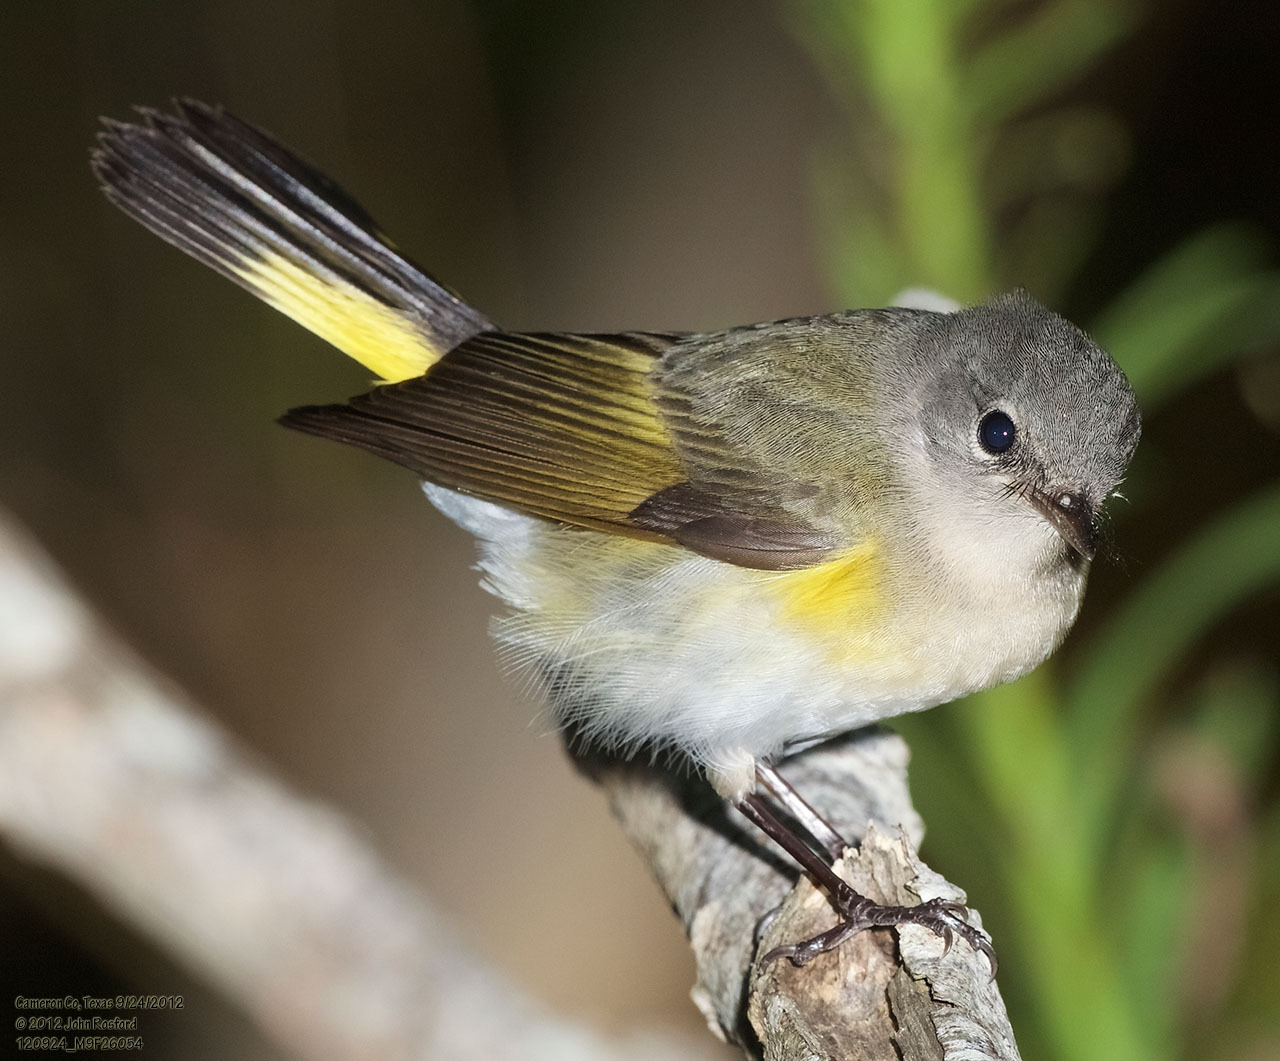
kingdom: Animalia
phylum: Chordata
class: Aves
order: Passeriformes
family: Parulidae
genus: Setophaga
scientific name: Setophaga ruticilla
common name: American redstart
